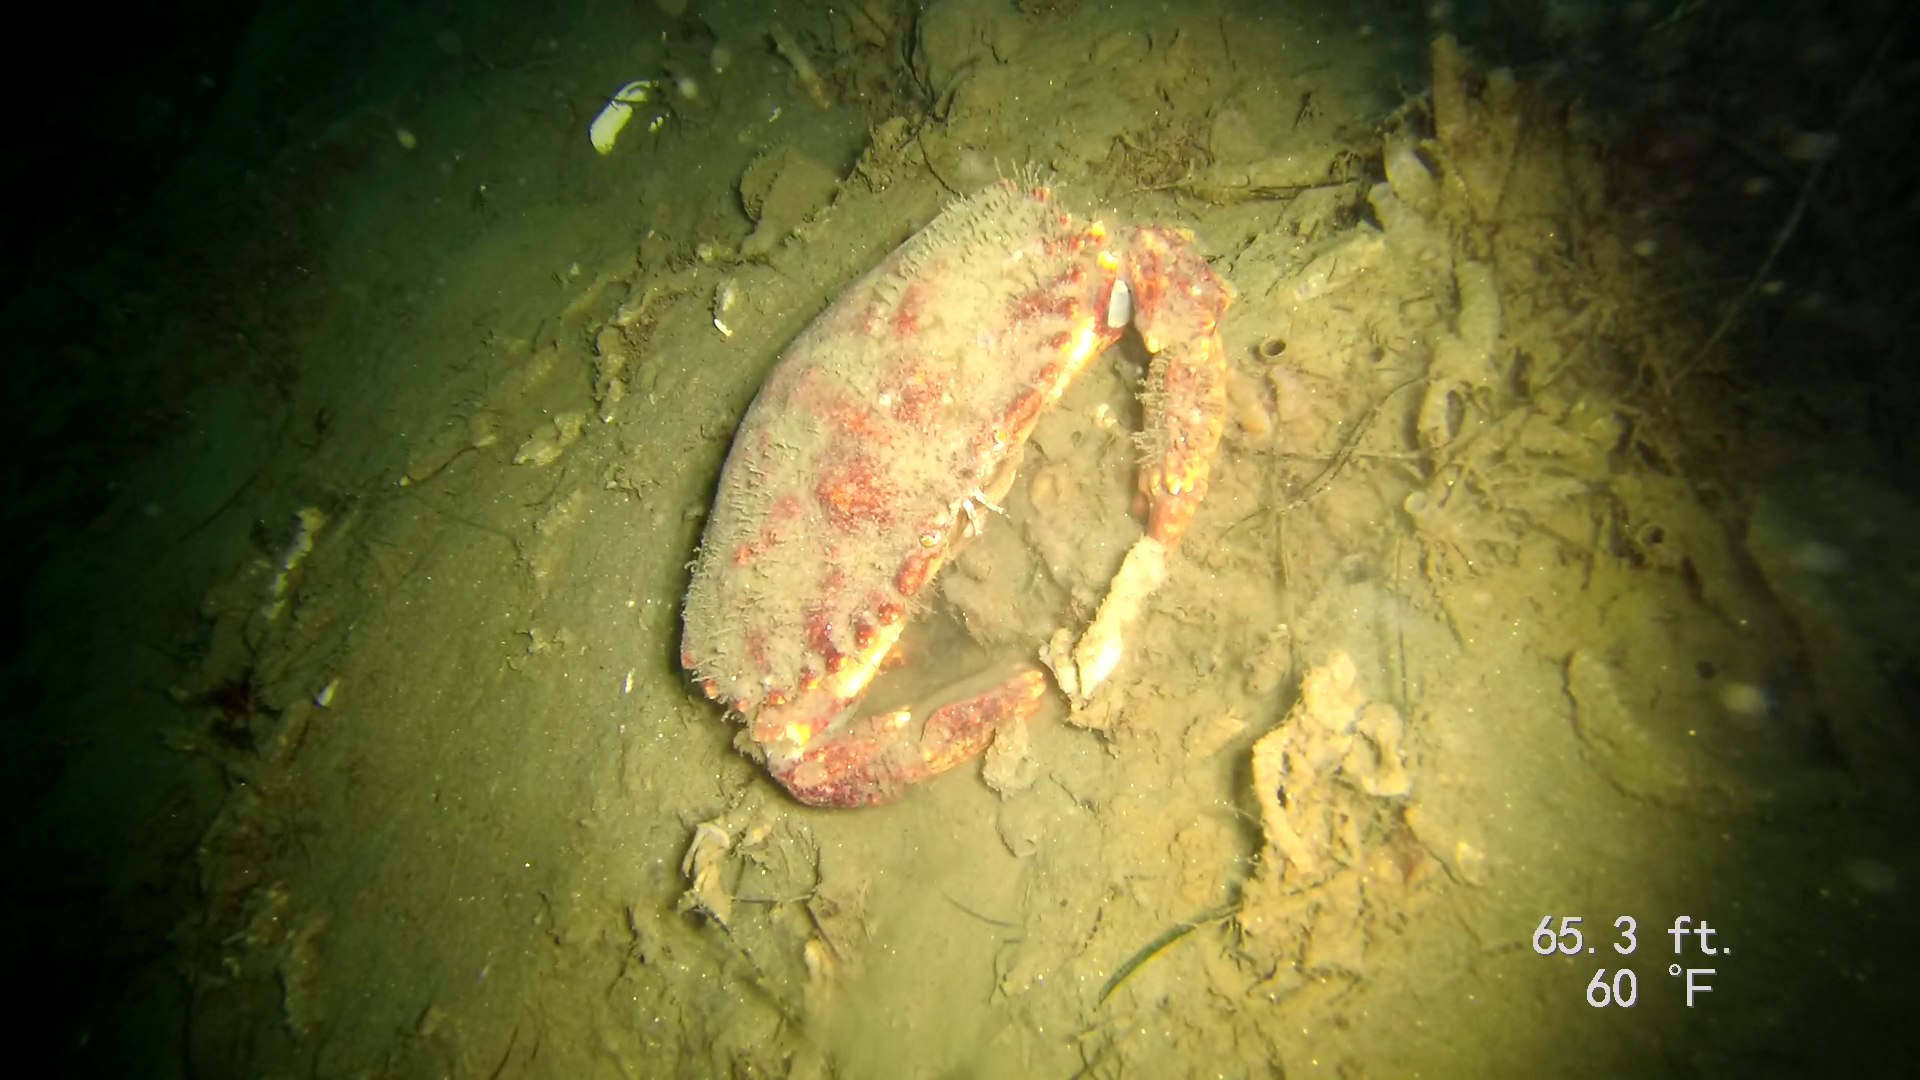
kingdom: Animalia
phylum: Arthropoda
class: Malacostraca
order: Decapoda
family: Cancridae
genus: Cancer
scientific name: Cancer productus
